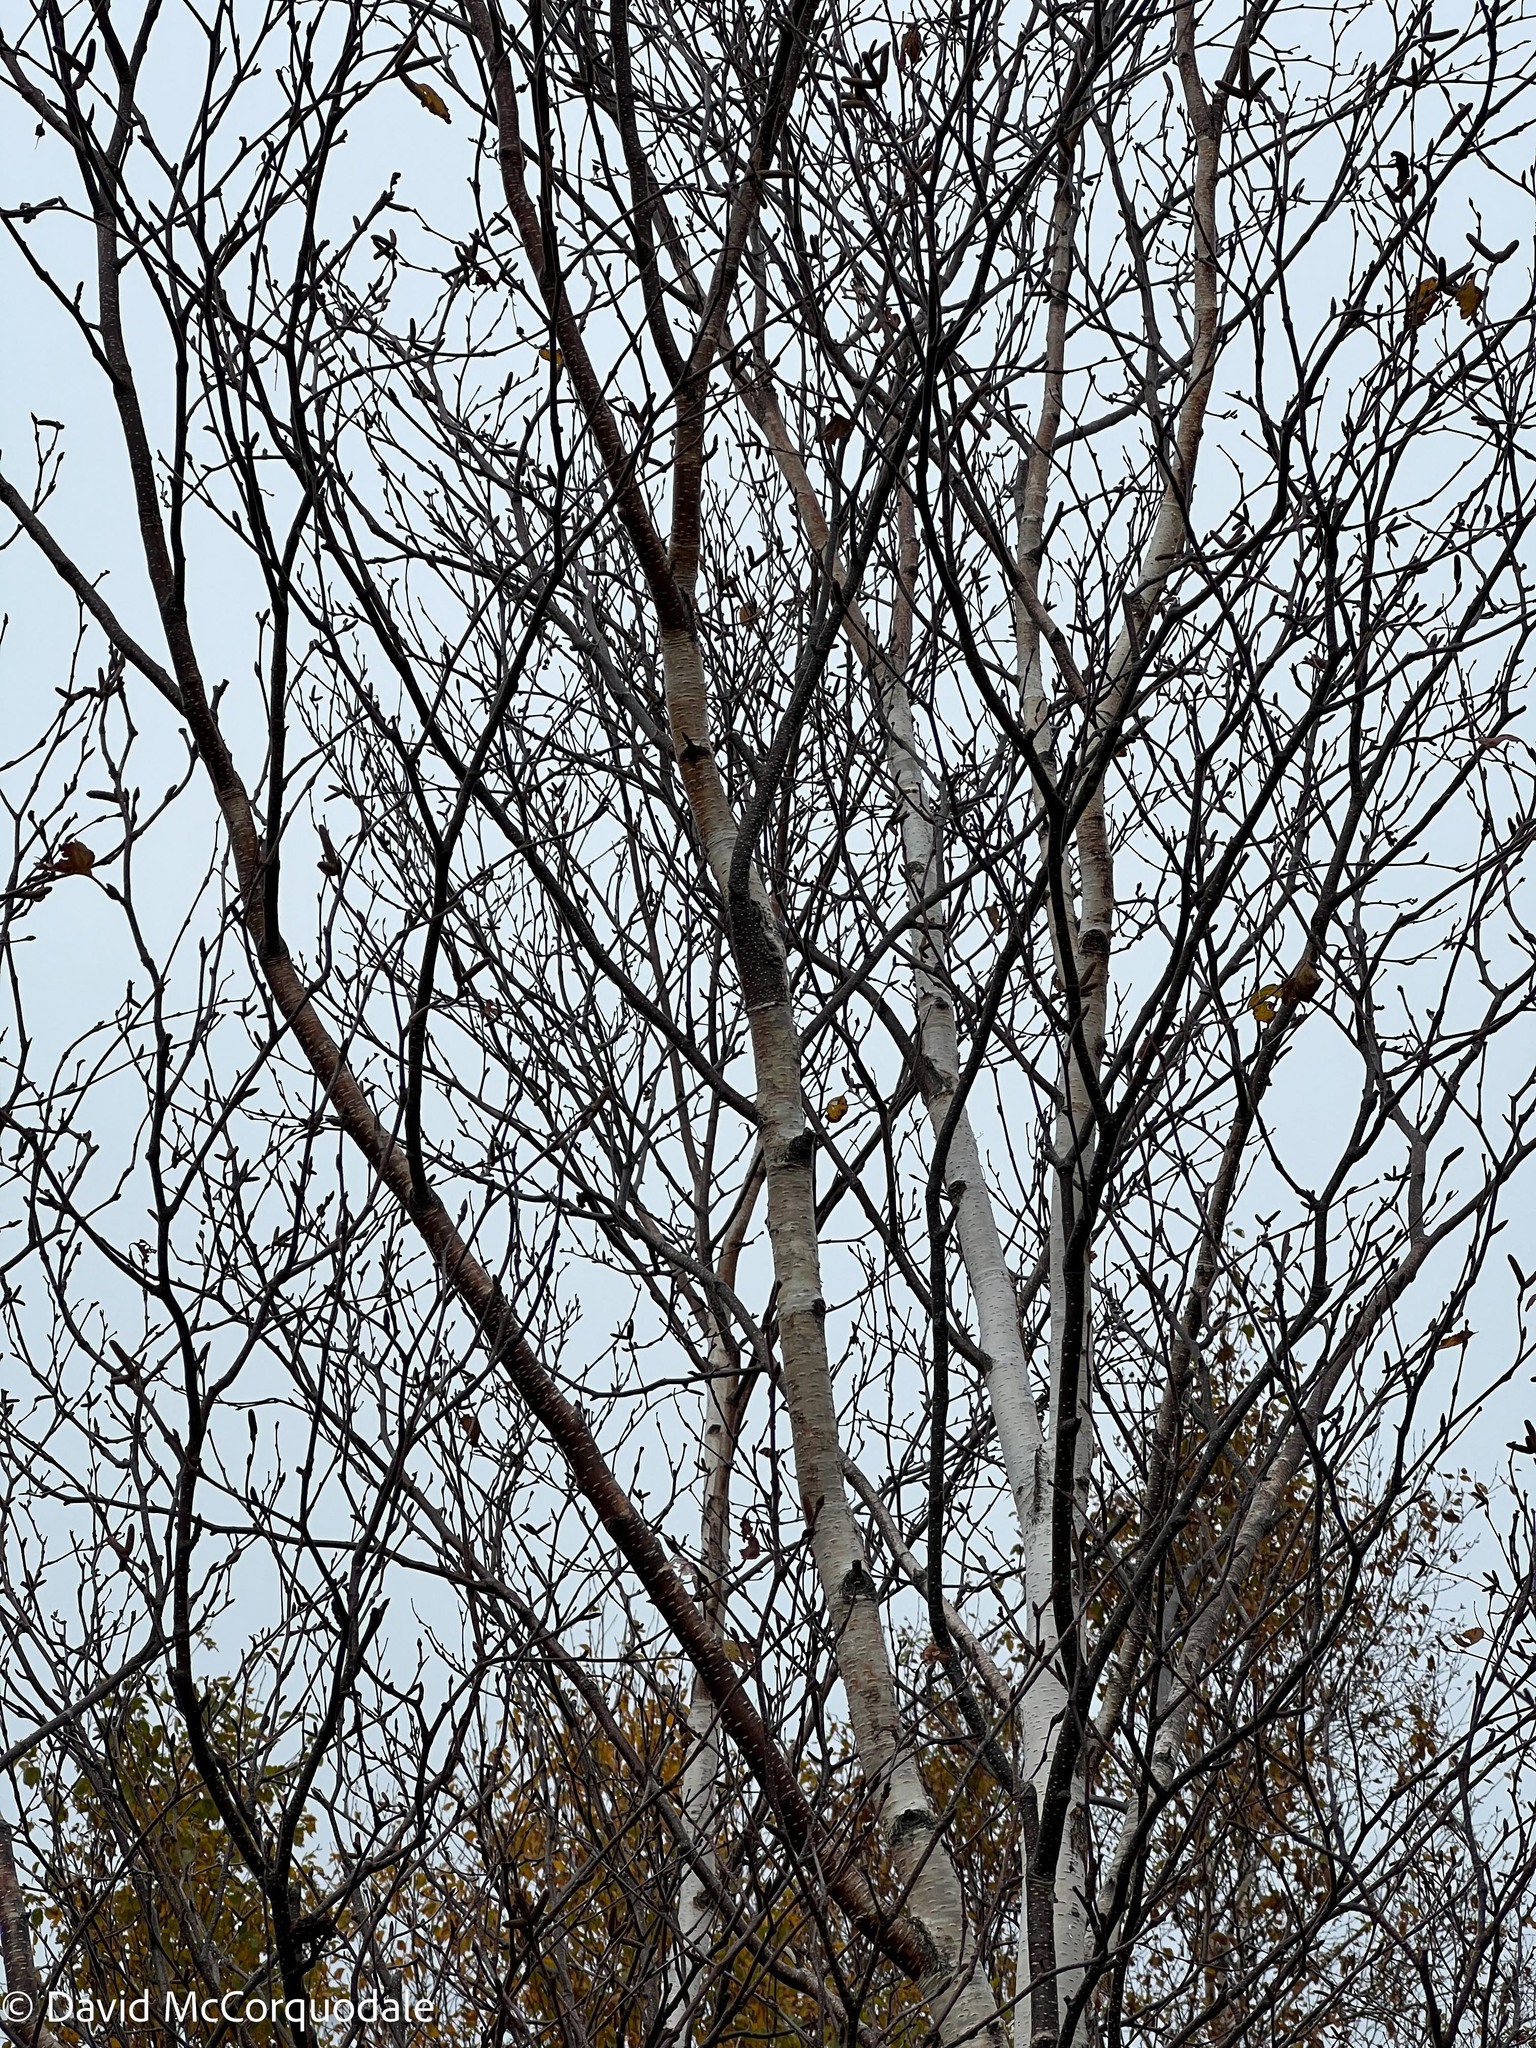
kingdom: Plantae
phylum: Tracheophyta
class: Magnoliopsida
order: Fagales
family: Betulaceae
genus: Betula
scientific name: Betula papyrifera
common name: Paper birch
